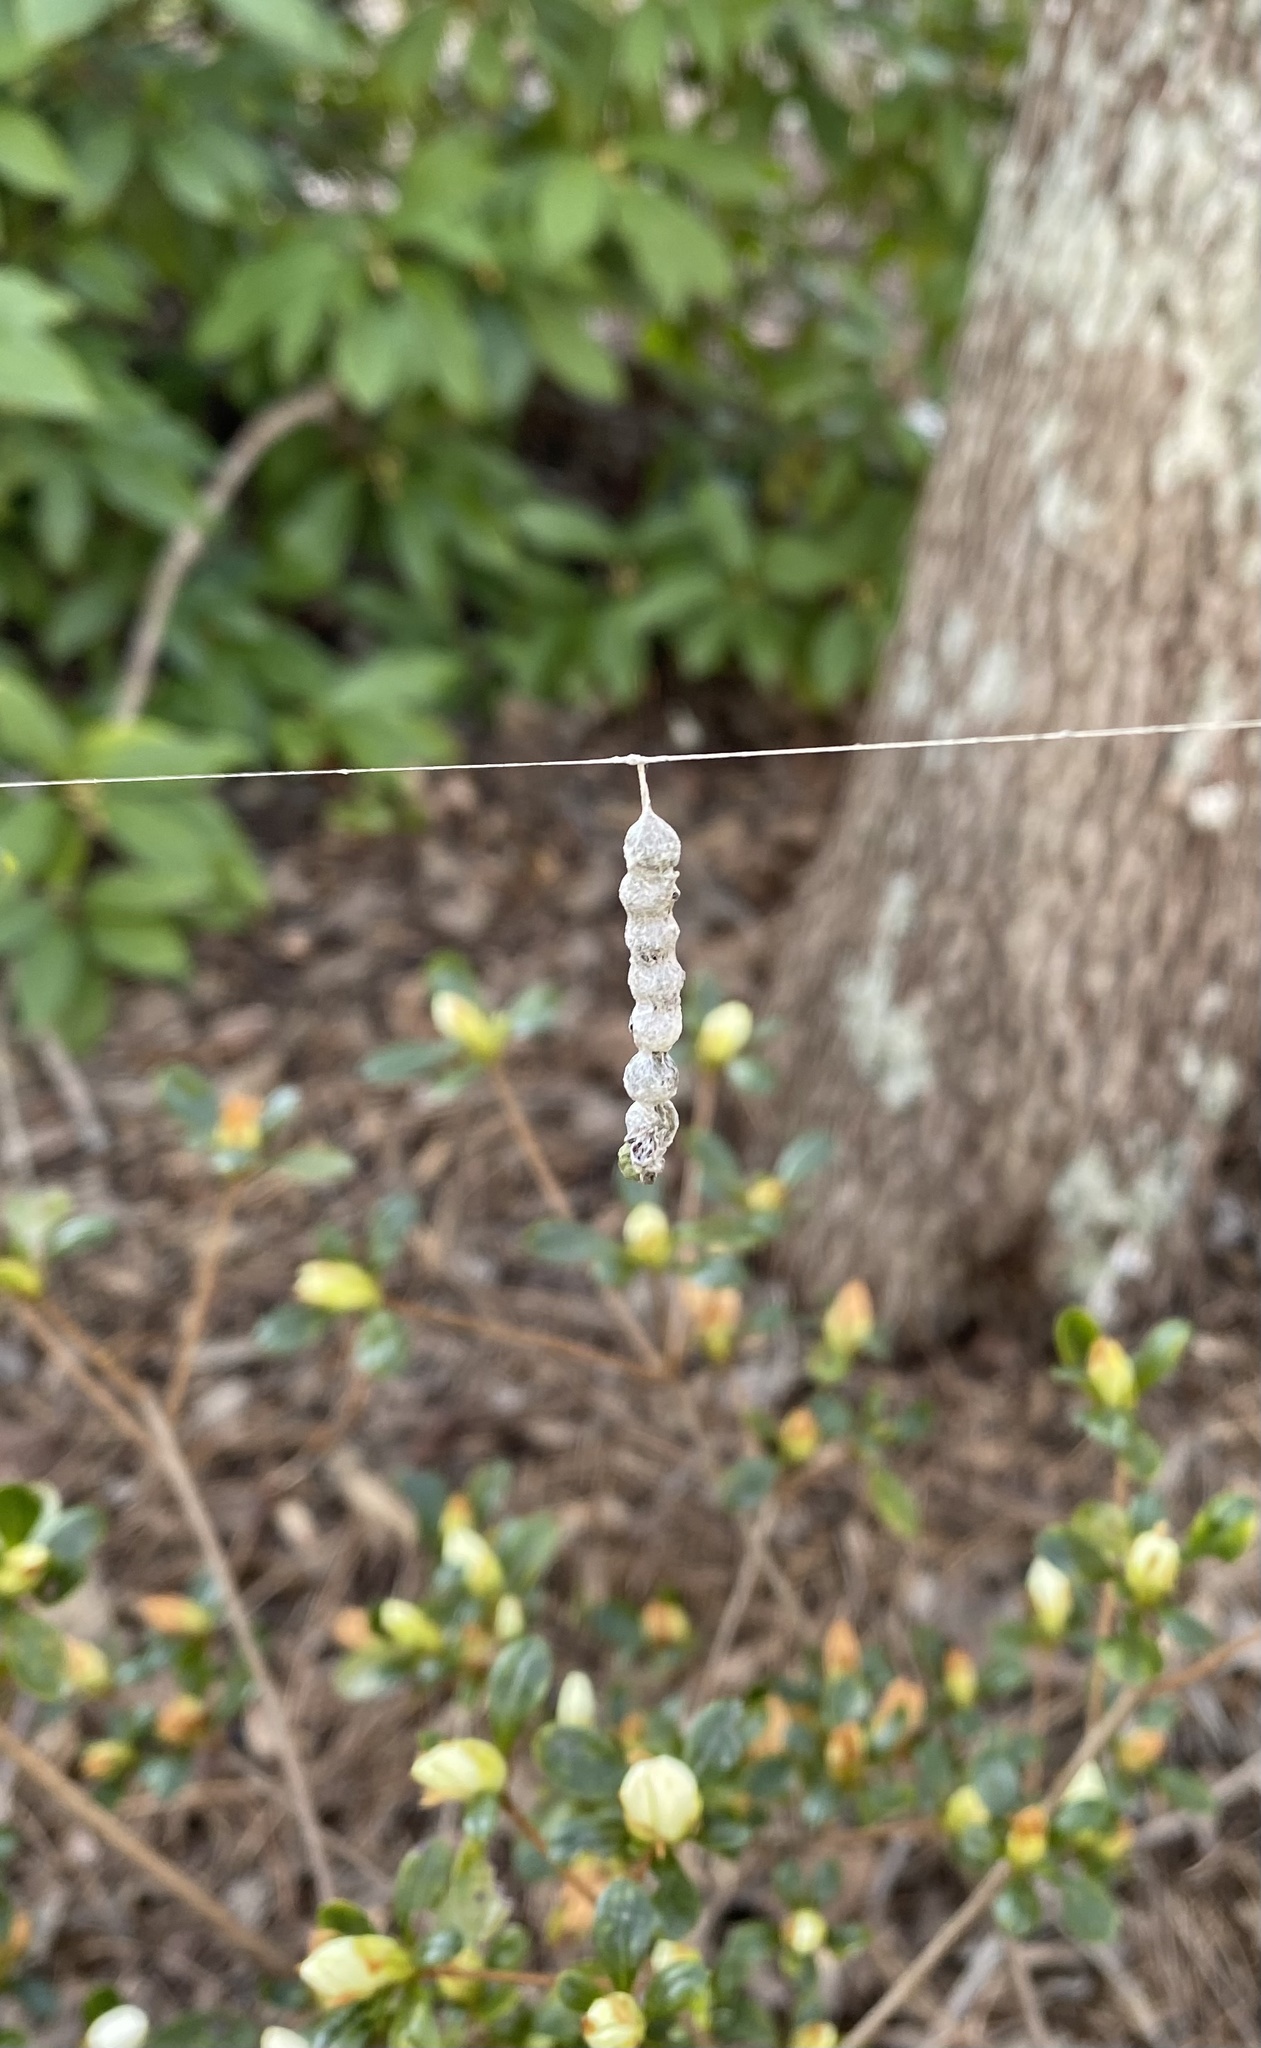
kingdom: Animalia
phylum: Arthropoda
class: Arachnida
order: Araneae
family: Araneidae
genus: Mecynogea
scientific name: Mecynogea lemniscata
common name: Orb weavers
